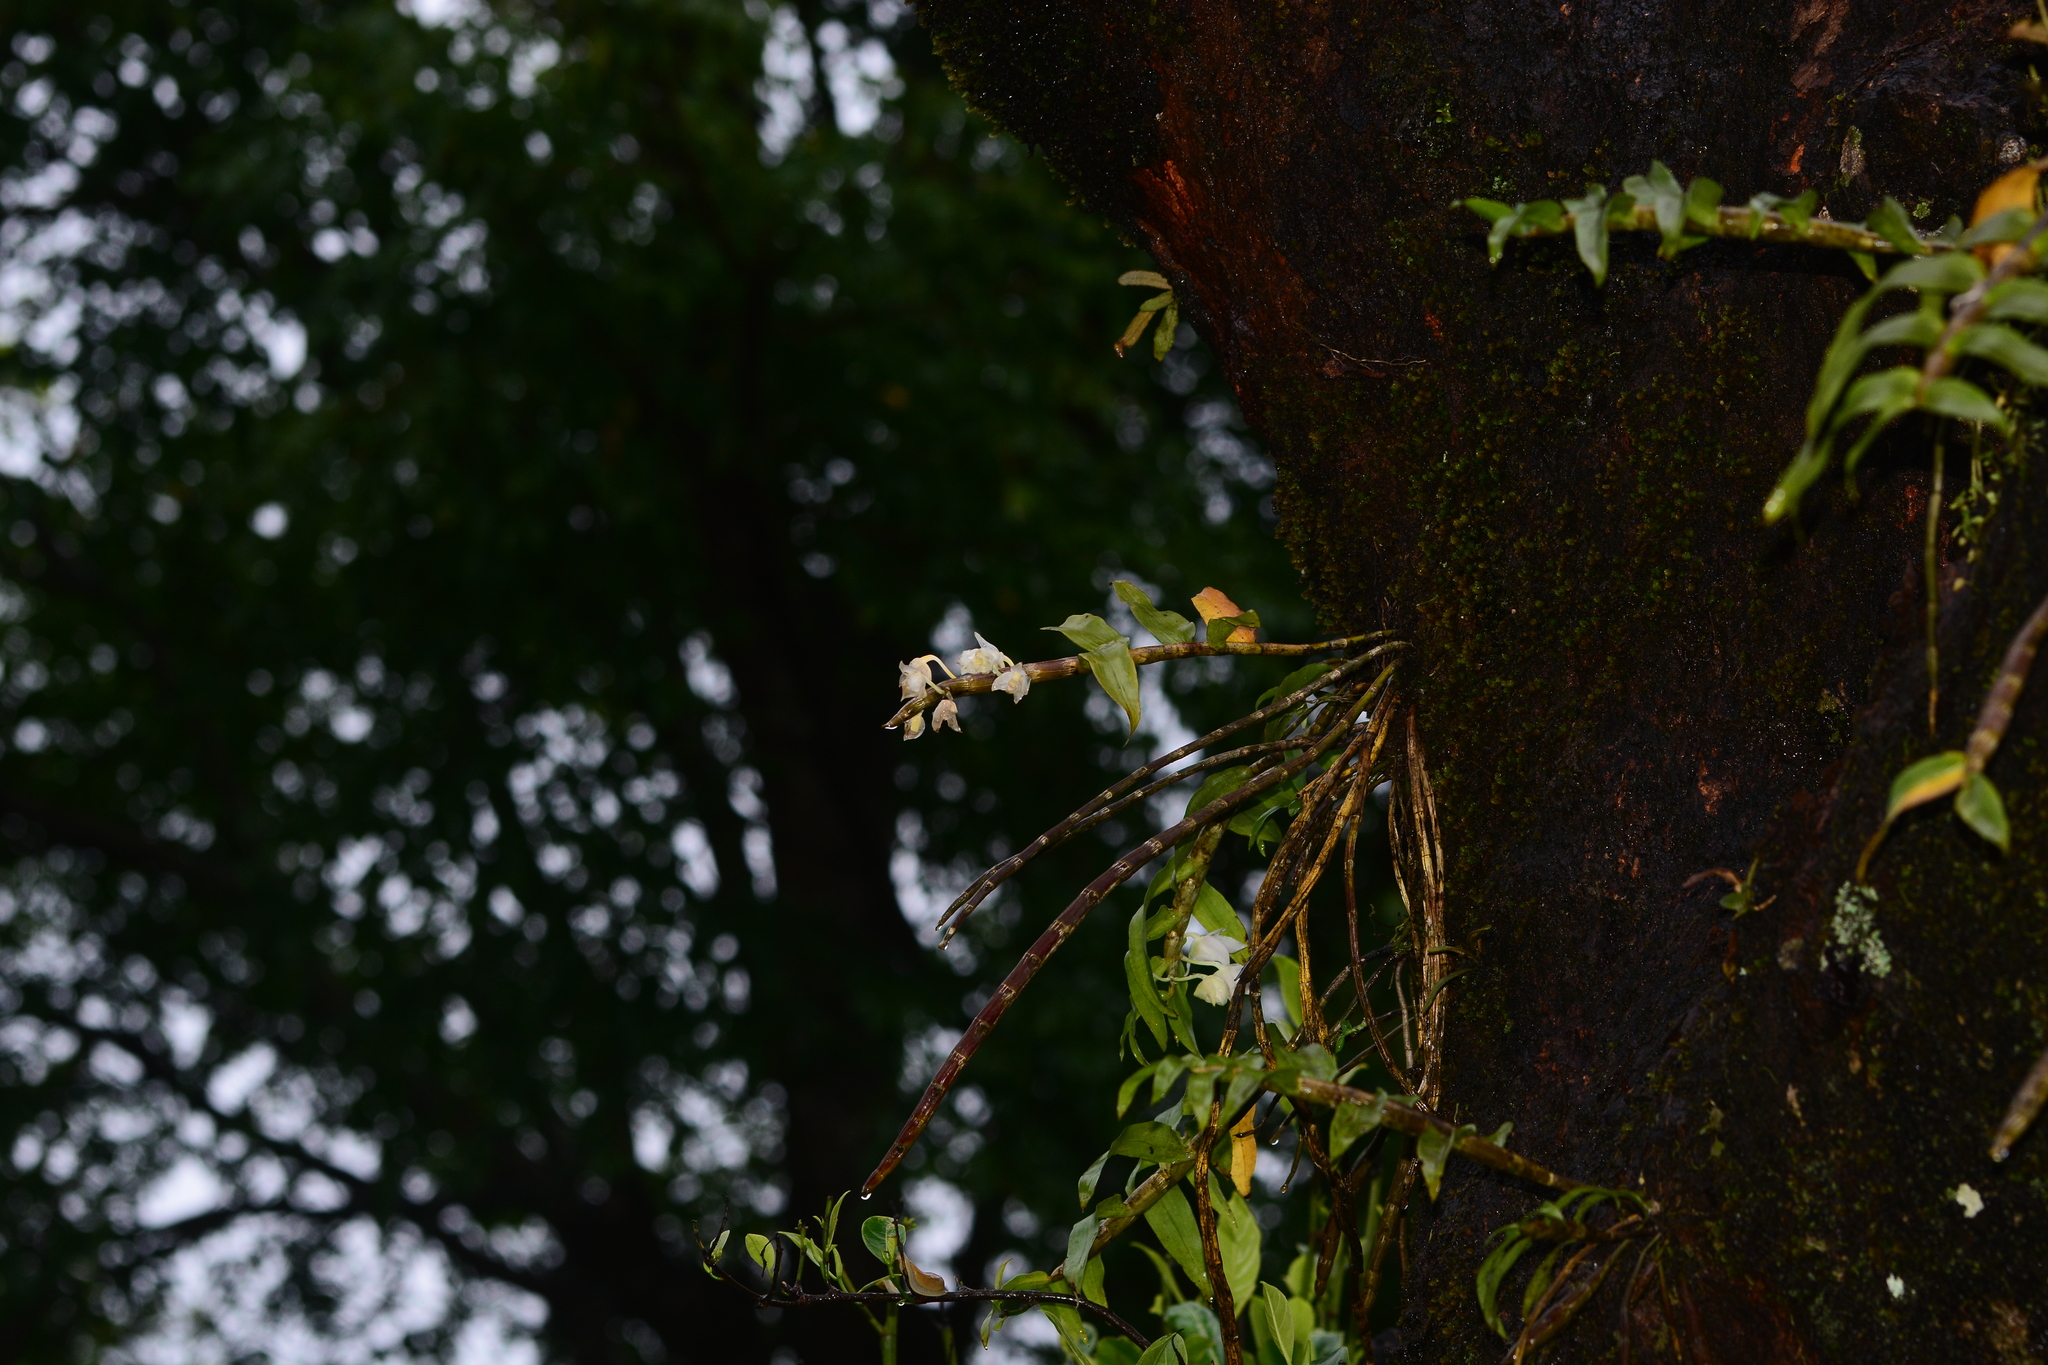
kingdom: Plantae
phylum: Tracheophyta
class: Liliopsida
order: Asparagales
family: Orchidaceae
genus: Dendrobium
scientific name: Dendrobium aqueum
